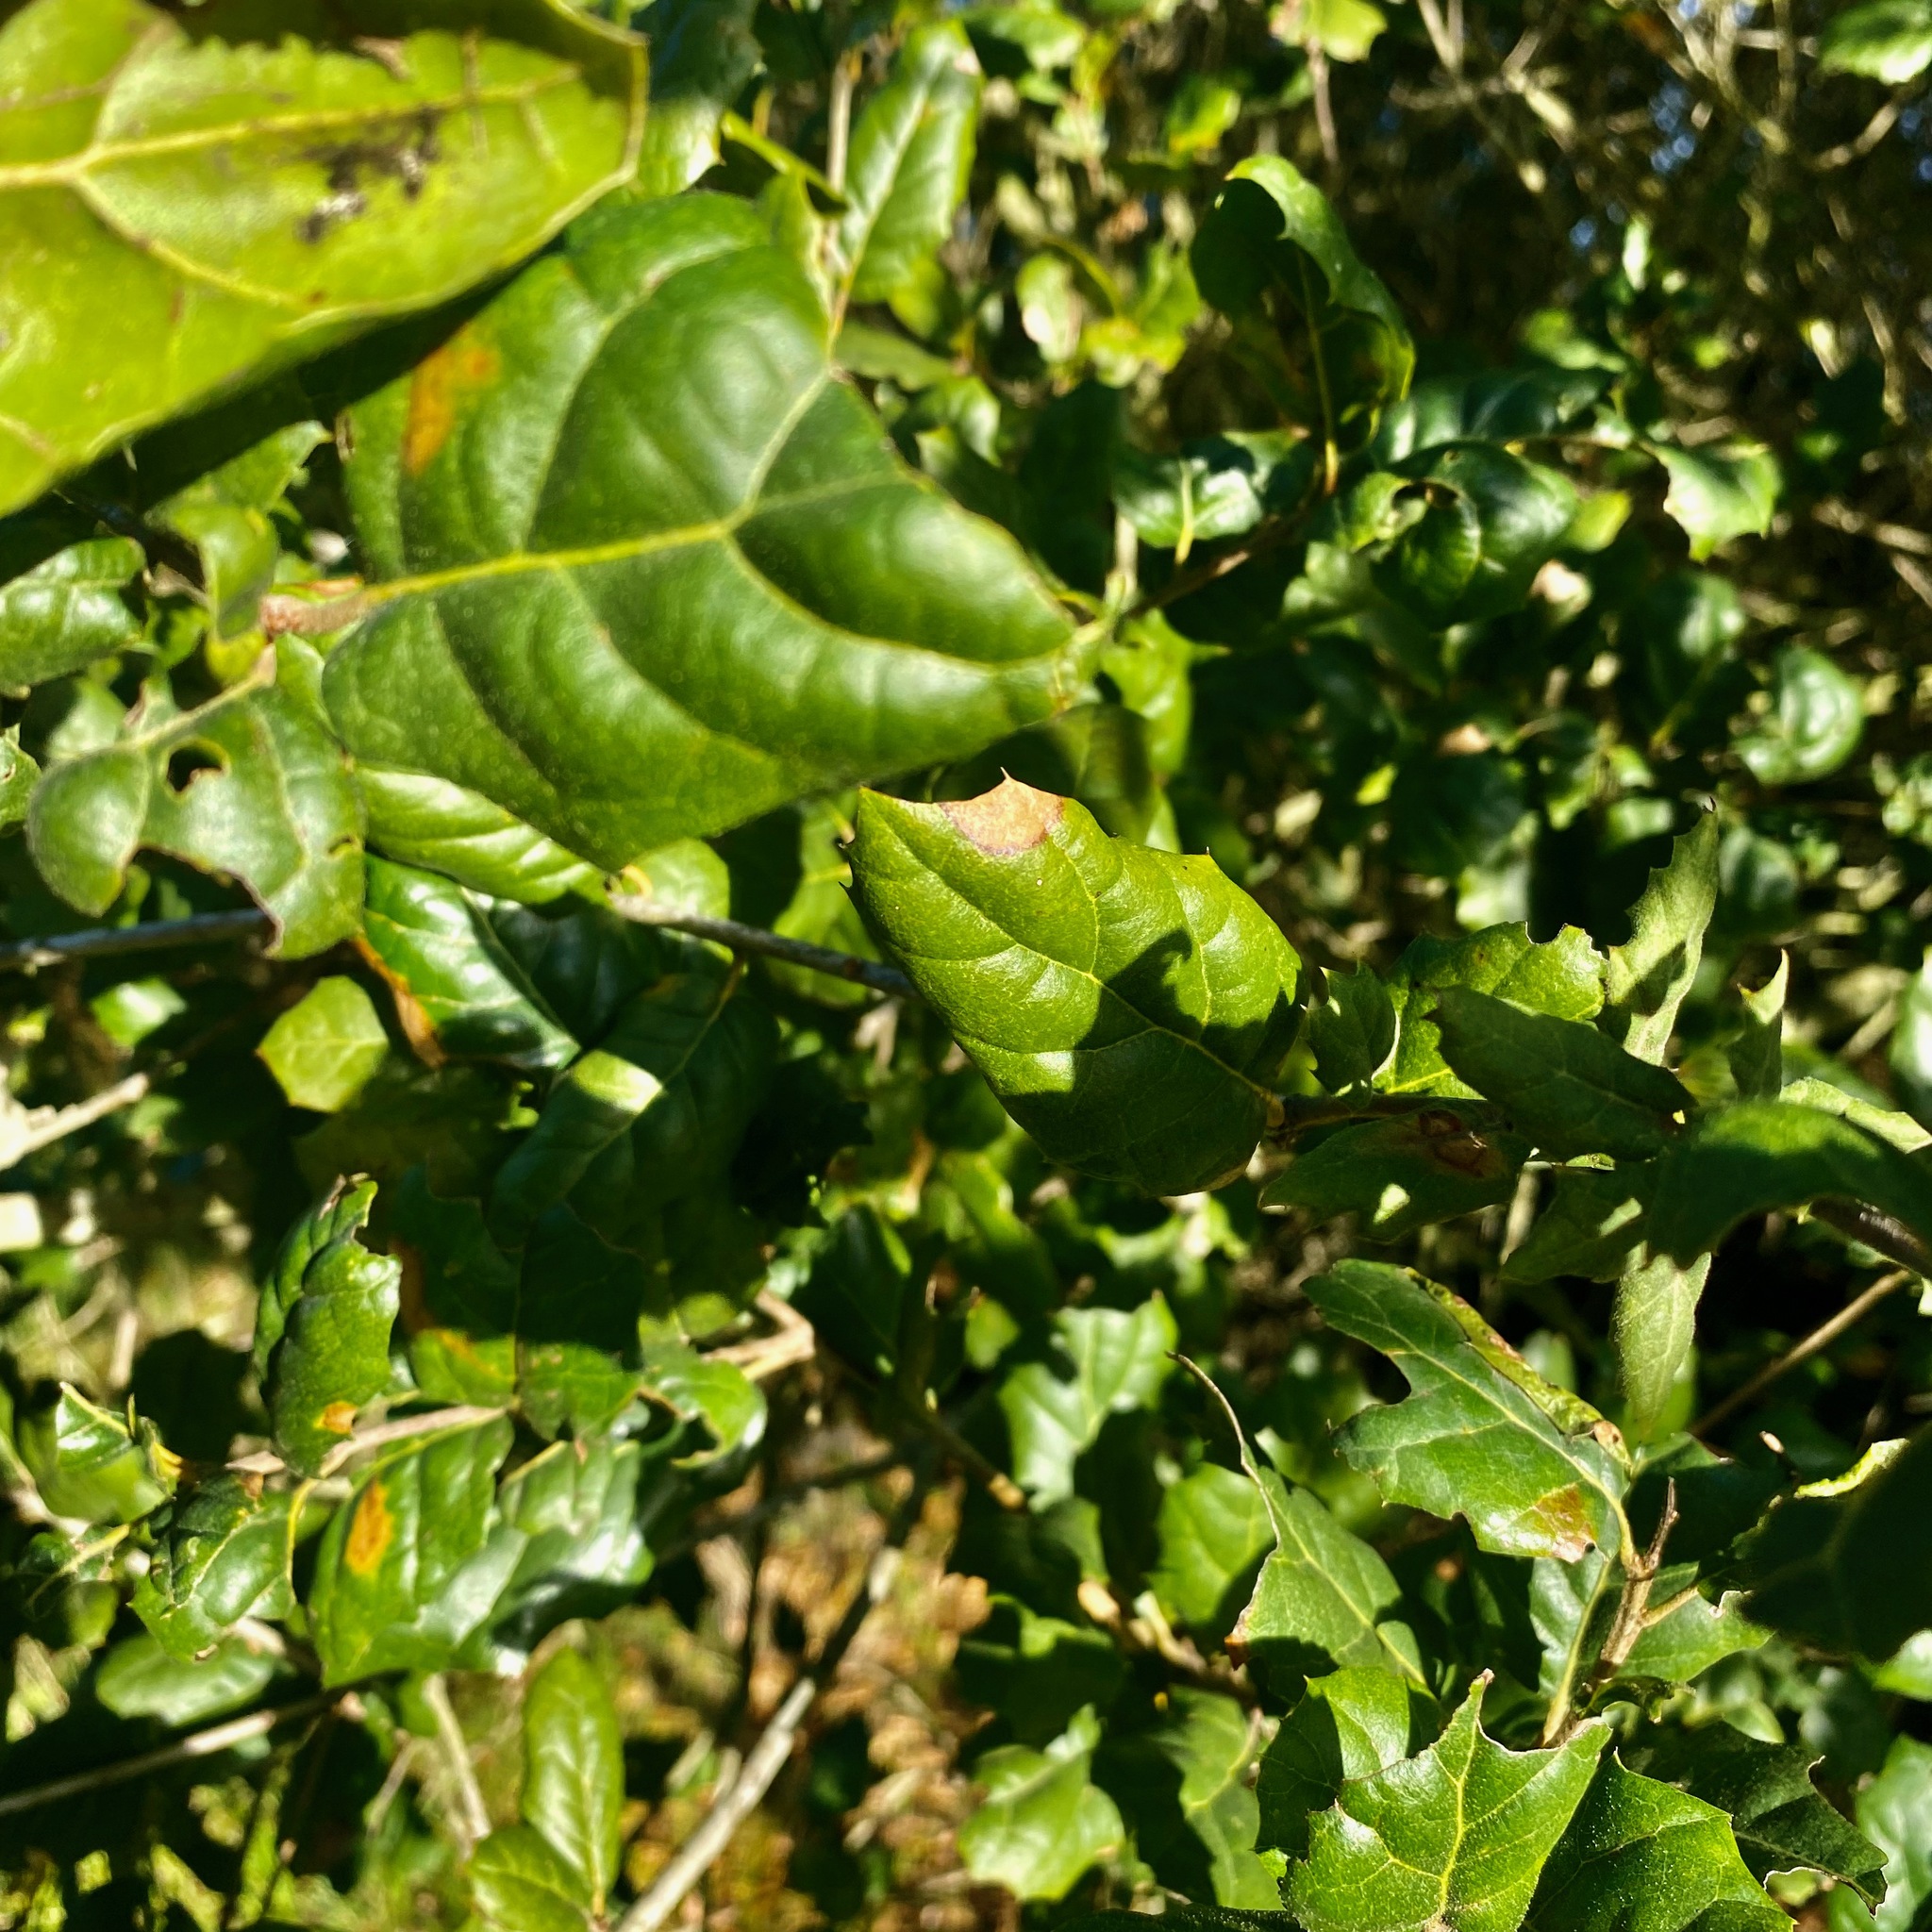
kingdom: Plantae
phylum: Tracheophyta
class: Magnoliopsida
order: Fagales
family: Fagaceae
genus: Quercus
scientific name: Quercus agrifolia
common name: California live oak
